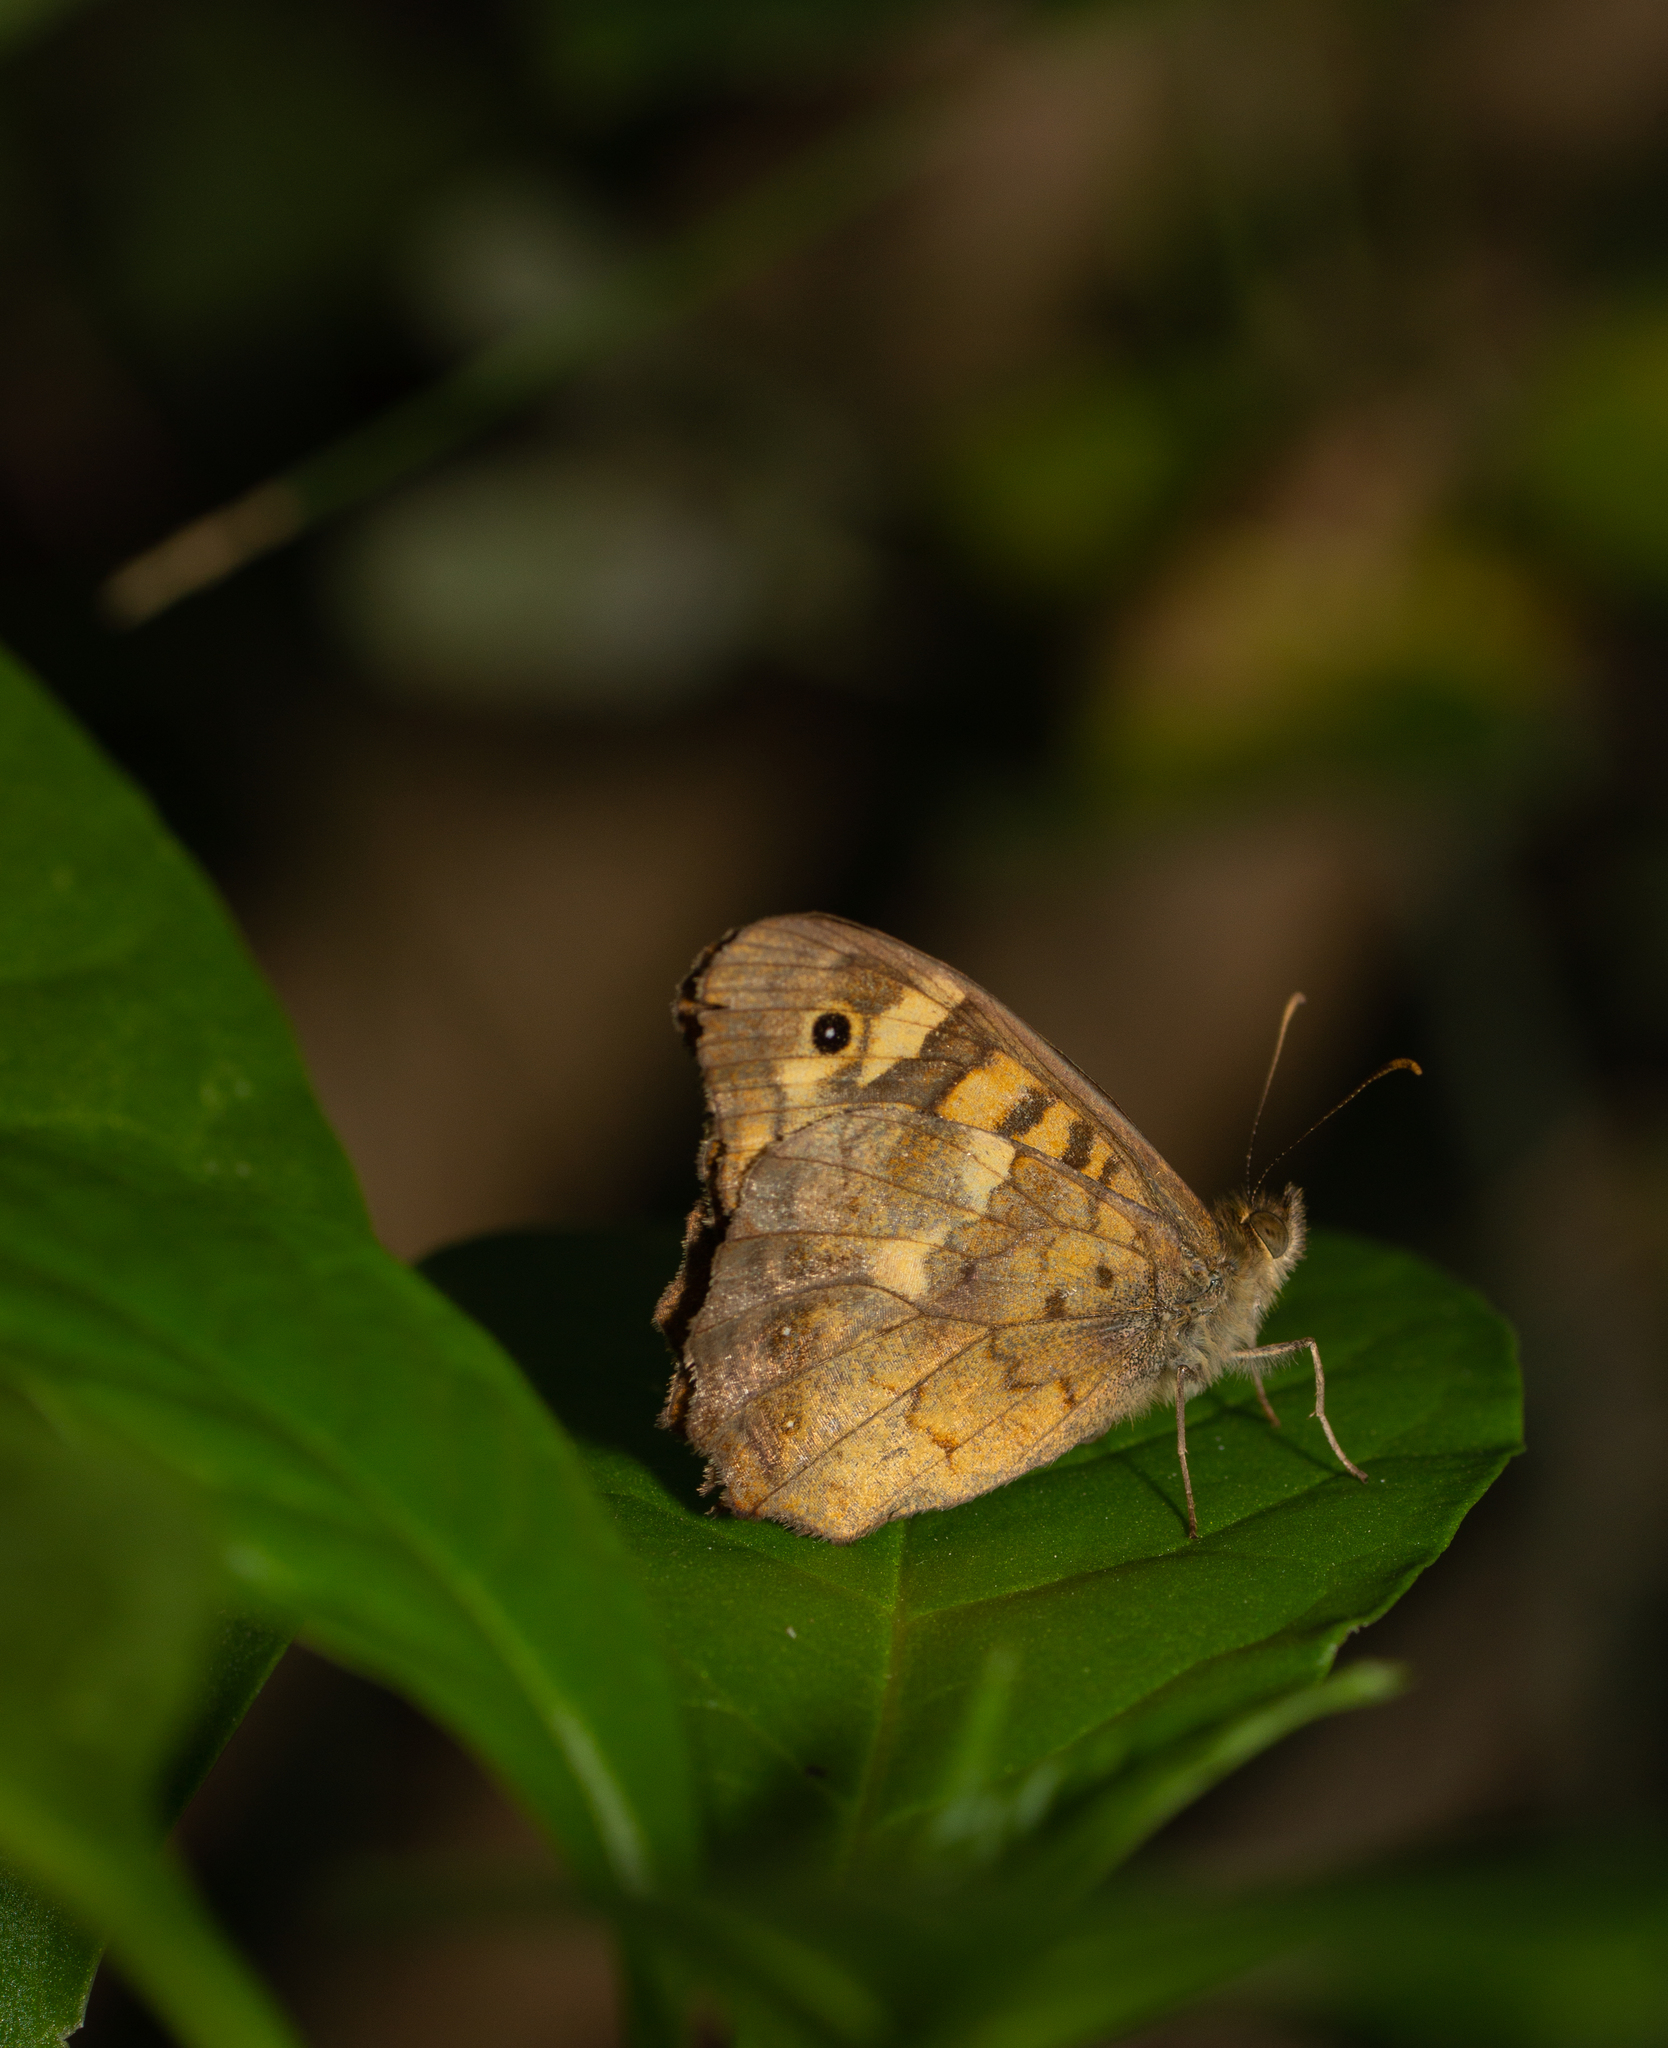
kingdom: Animalia
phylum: Arthropoda
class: Insecta
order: Lepidoptera
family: Nymphalidae
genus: Pararge
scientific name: Pararge aegeria
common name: Speckled wood
